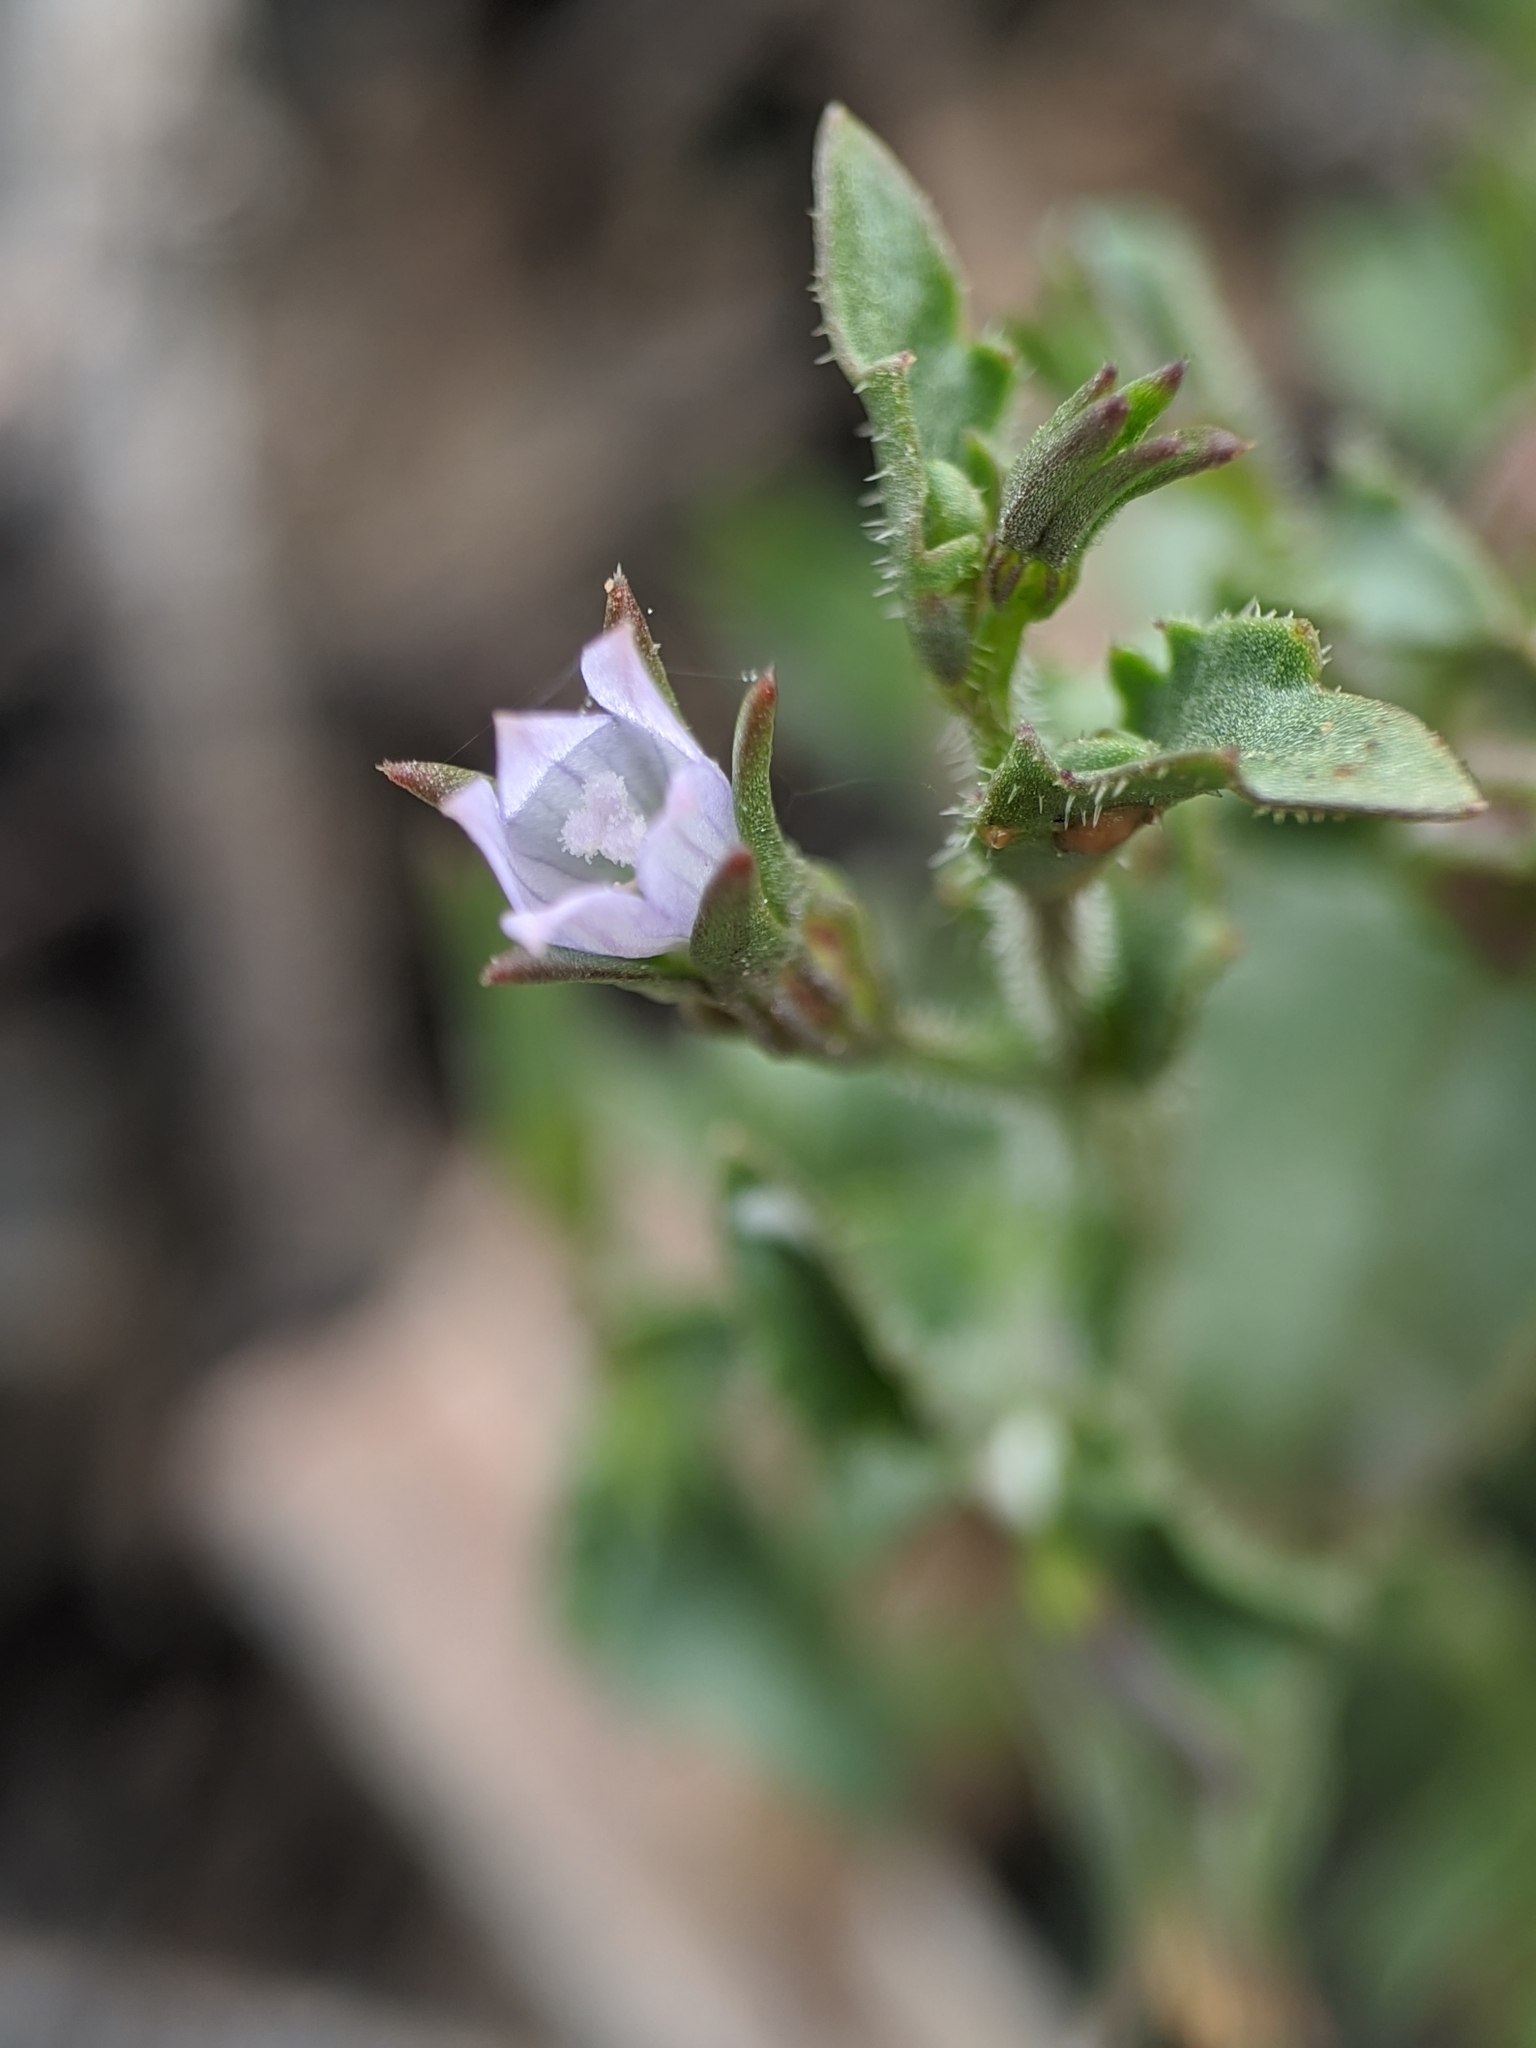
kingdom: Plantae
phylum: Tracheophyta
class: Magnoliopsida
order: Asterales
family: Campanulaceae
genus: Ravenella
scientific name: Ravenella angustiflora
